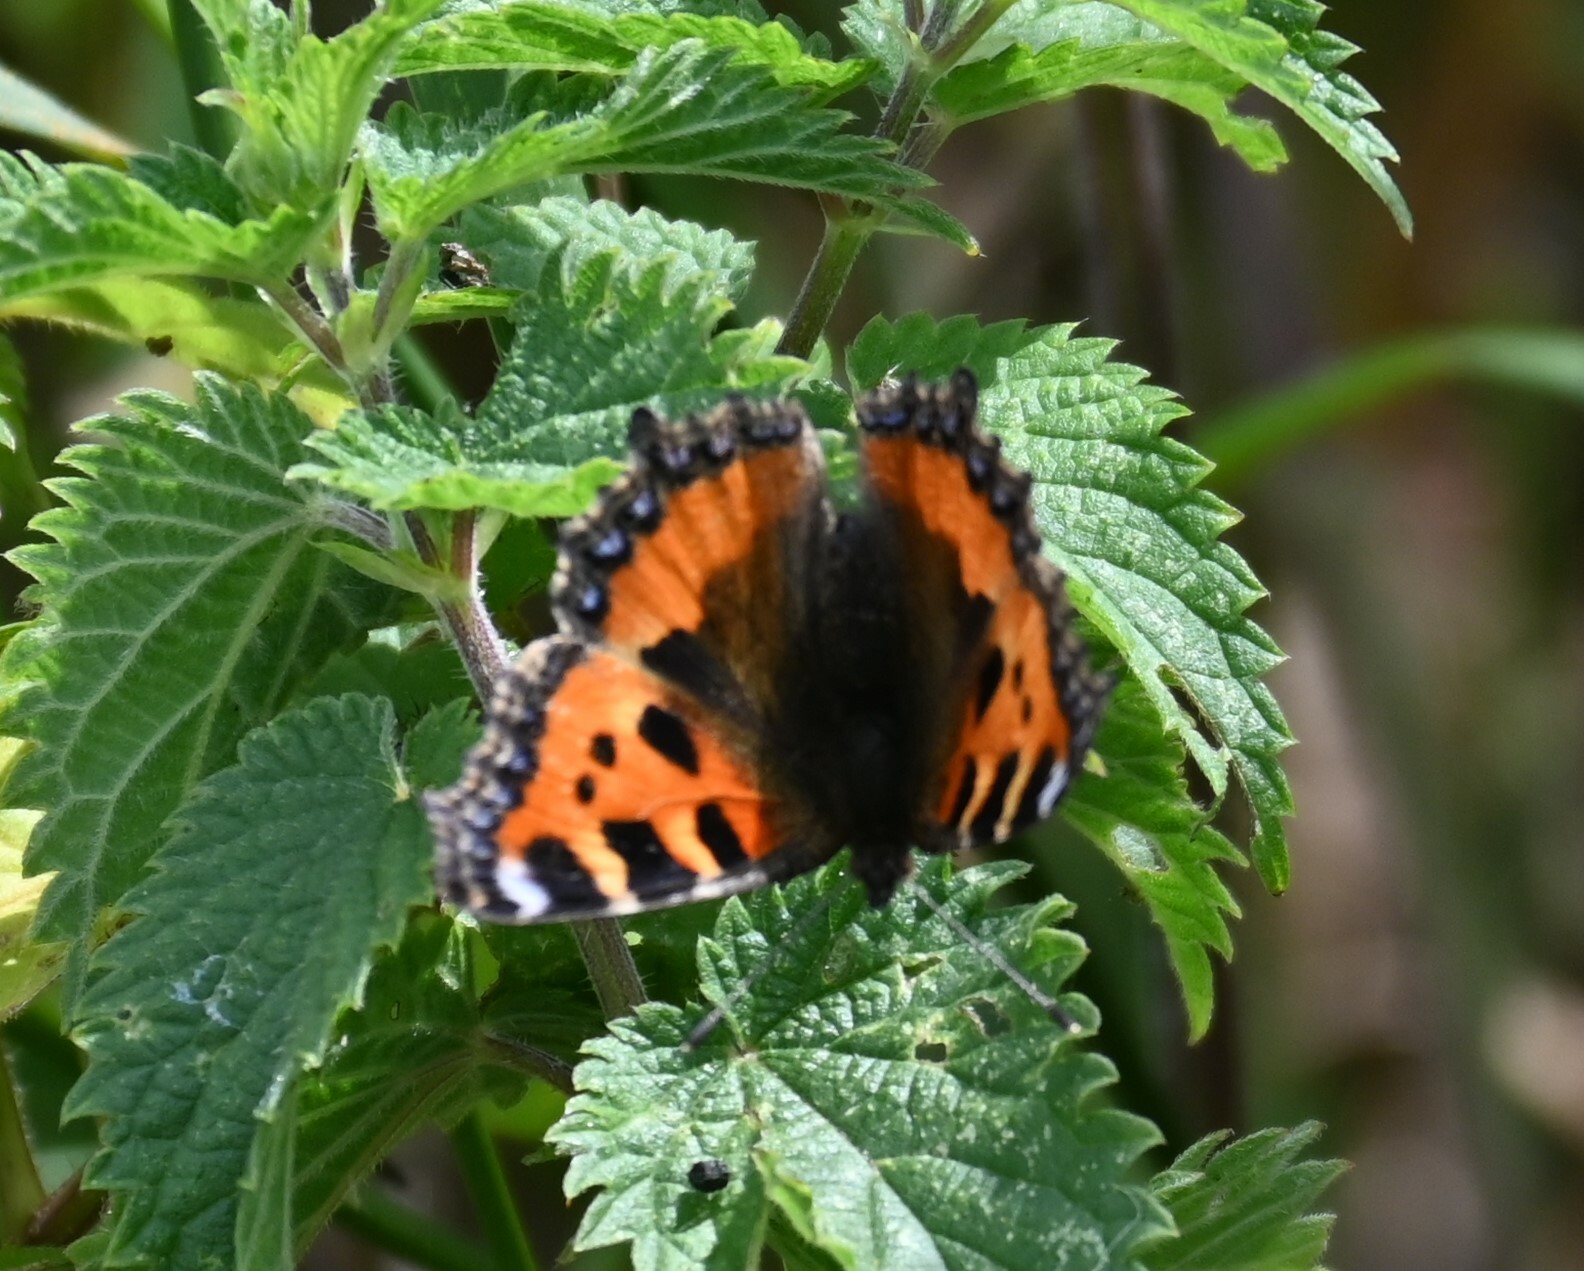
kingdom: Animalia
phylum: Arthropoda
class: Insecta
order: Lepidoptera
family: Nymphalidae
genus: Aglais
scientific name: Aglais urticae
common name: Small tortoiseshell
